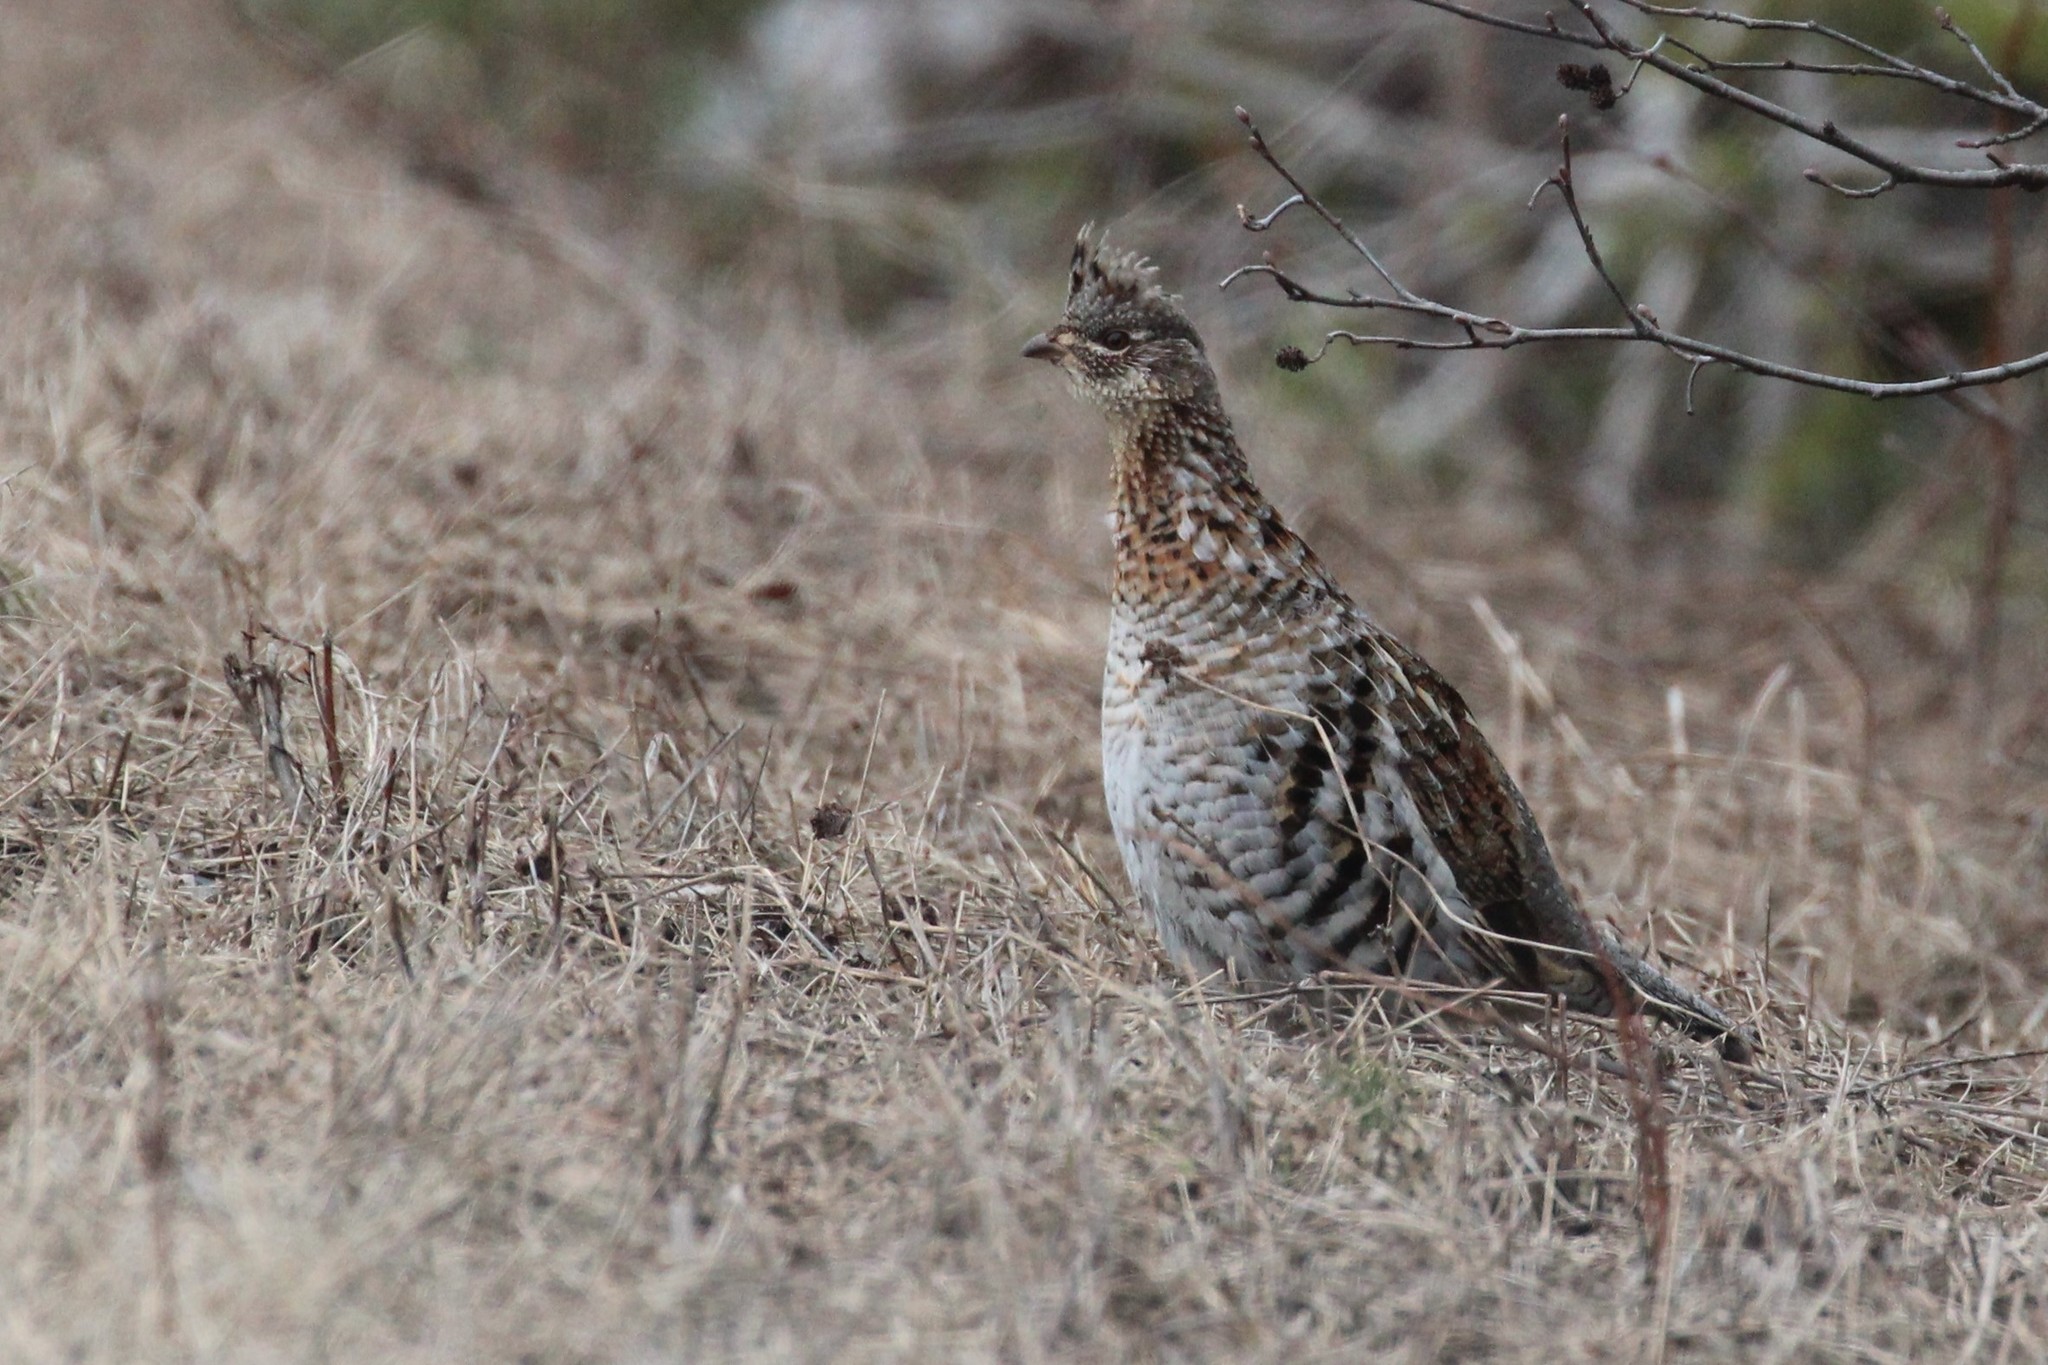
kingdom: Animalia
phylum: Chordata
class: Aves
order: Galliformes
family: Phasianidae
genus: Bonasa
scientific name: Bonasa umbellus
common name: Ruffed grouse
